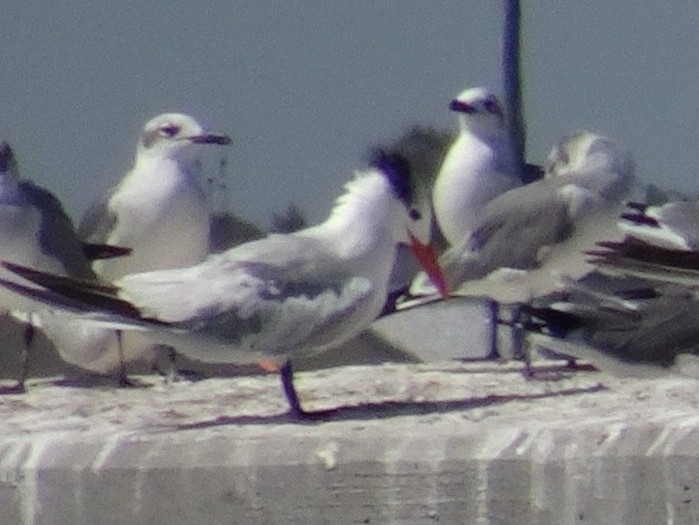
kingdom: Animalia
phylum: Chordata
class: Aves
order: Charadriiformes
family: Laridae
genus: Thalasseus
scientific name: Thalasseus maximus
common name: Royal tern
